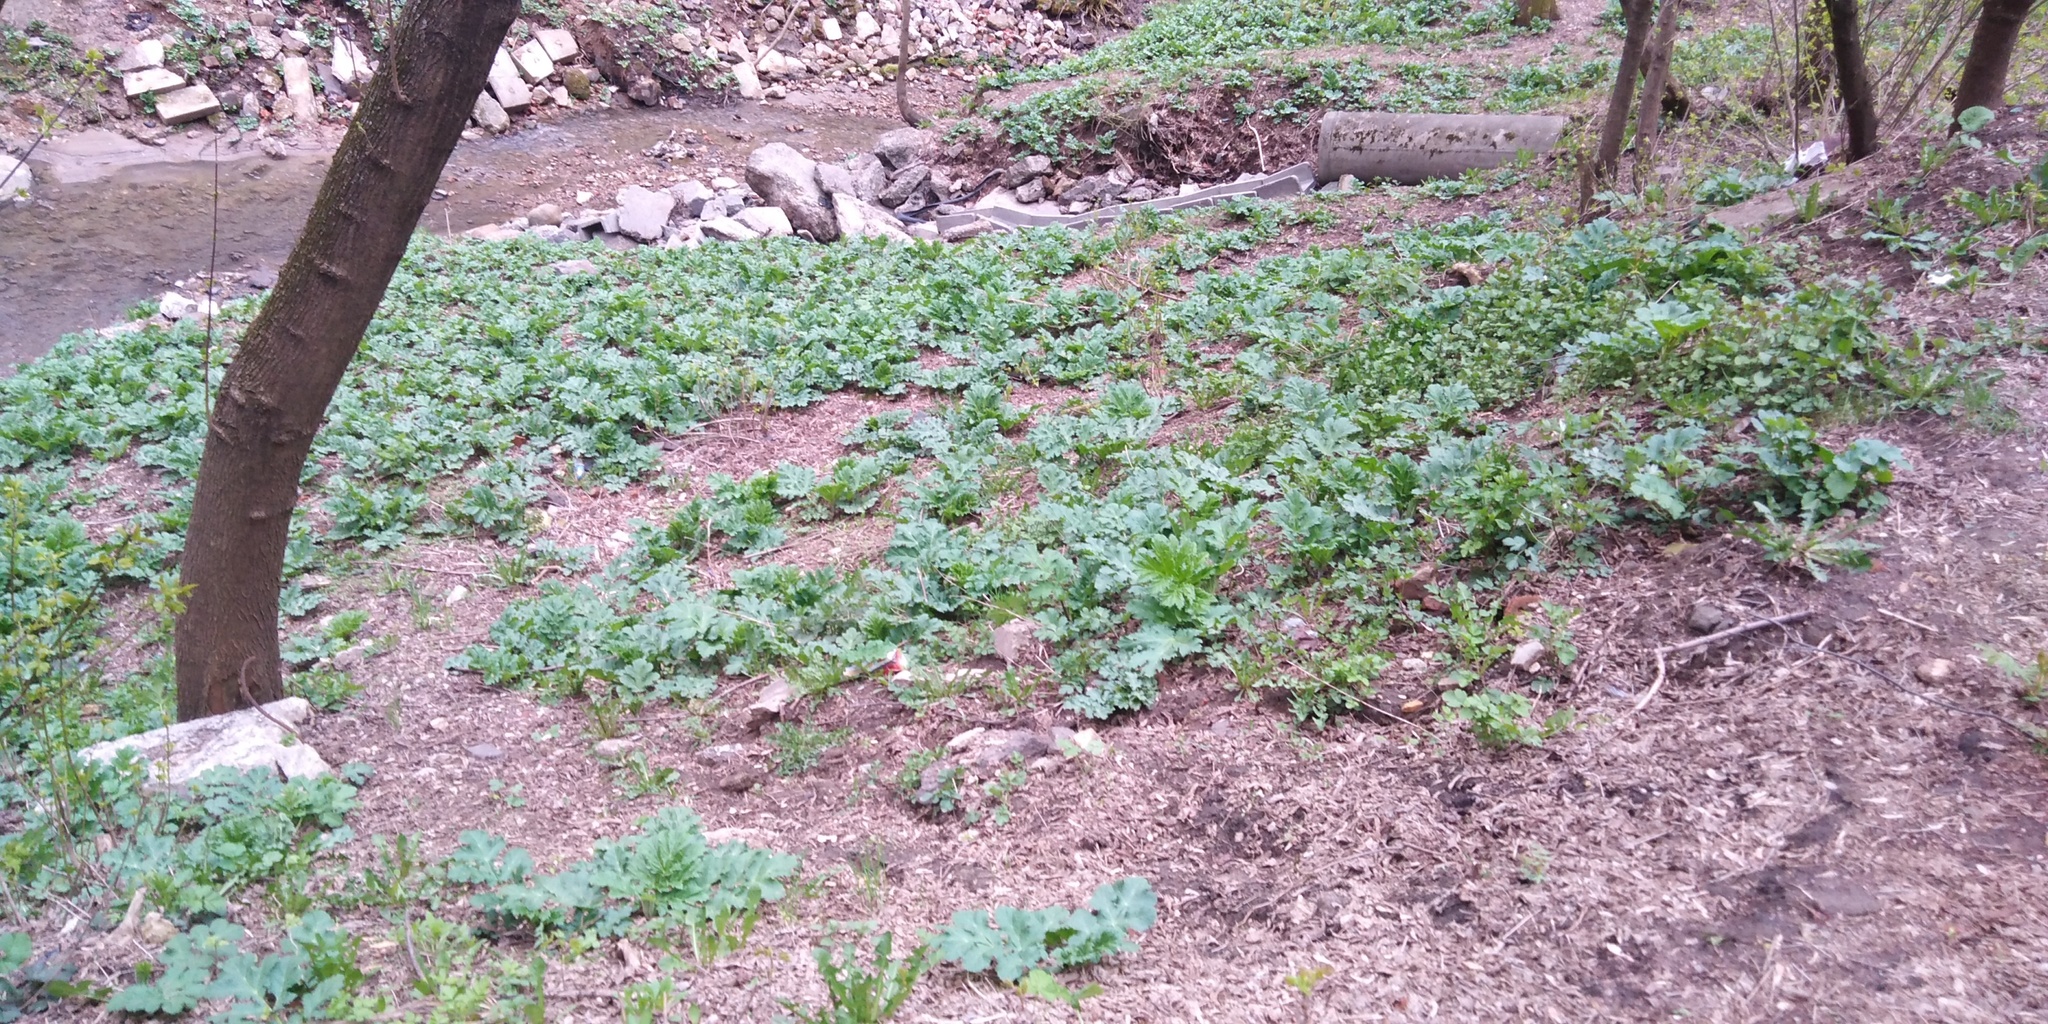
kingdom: Plantae
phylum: Tracheophyta
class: Magnoliopsida
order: Apiales
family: Apiaceae
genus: Heracleum
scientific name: Heracleum sosnowskyi
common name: Sosnowsky's hogweed
